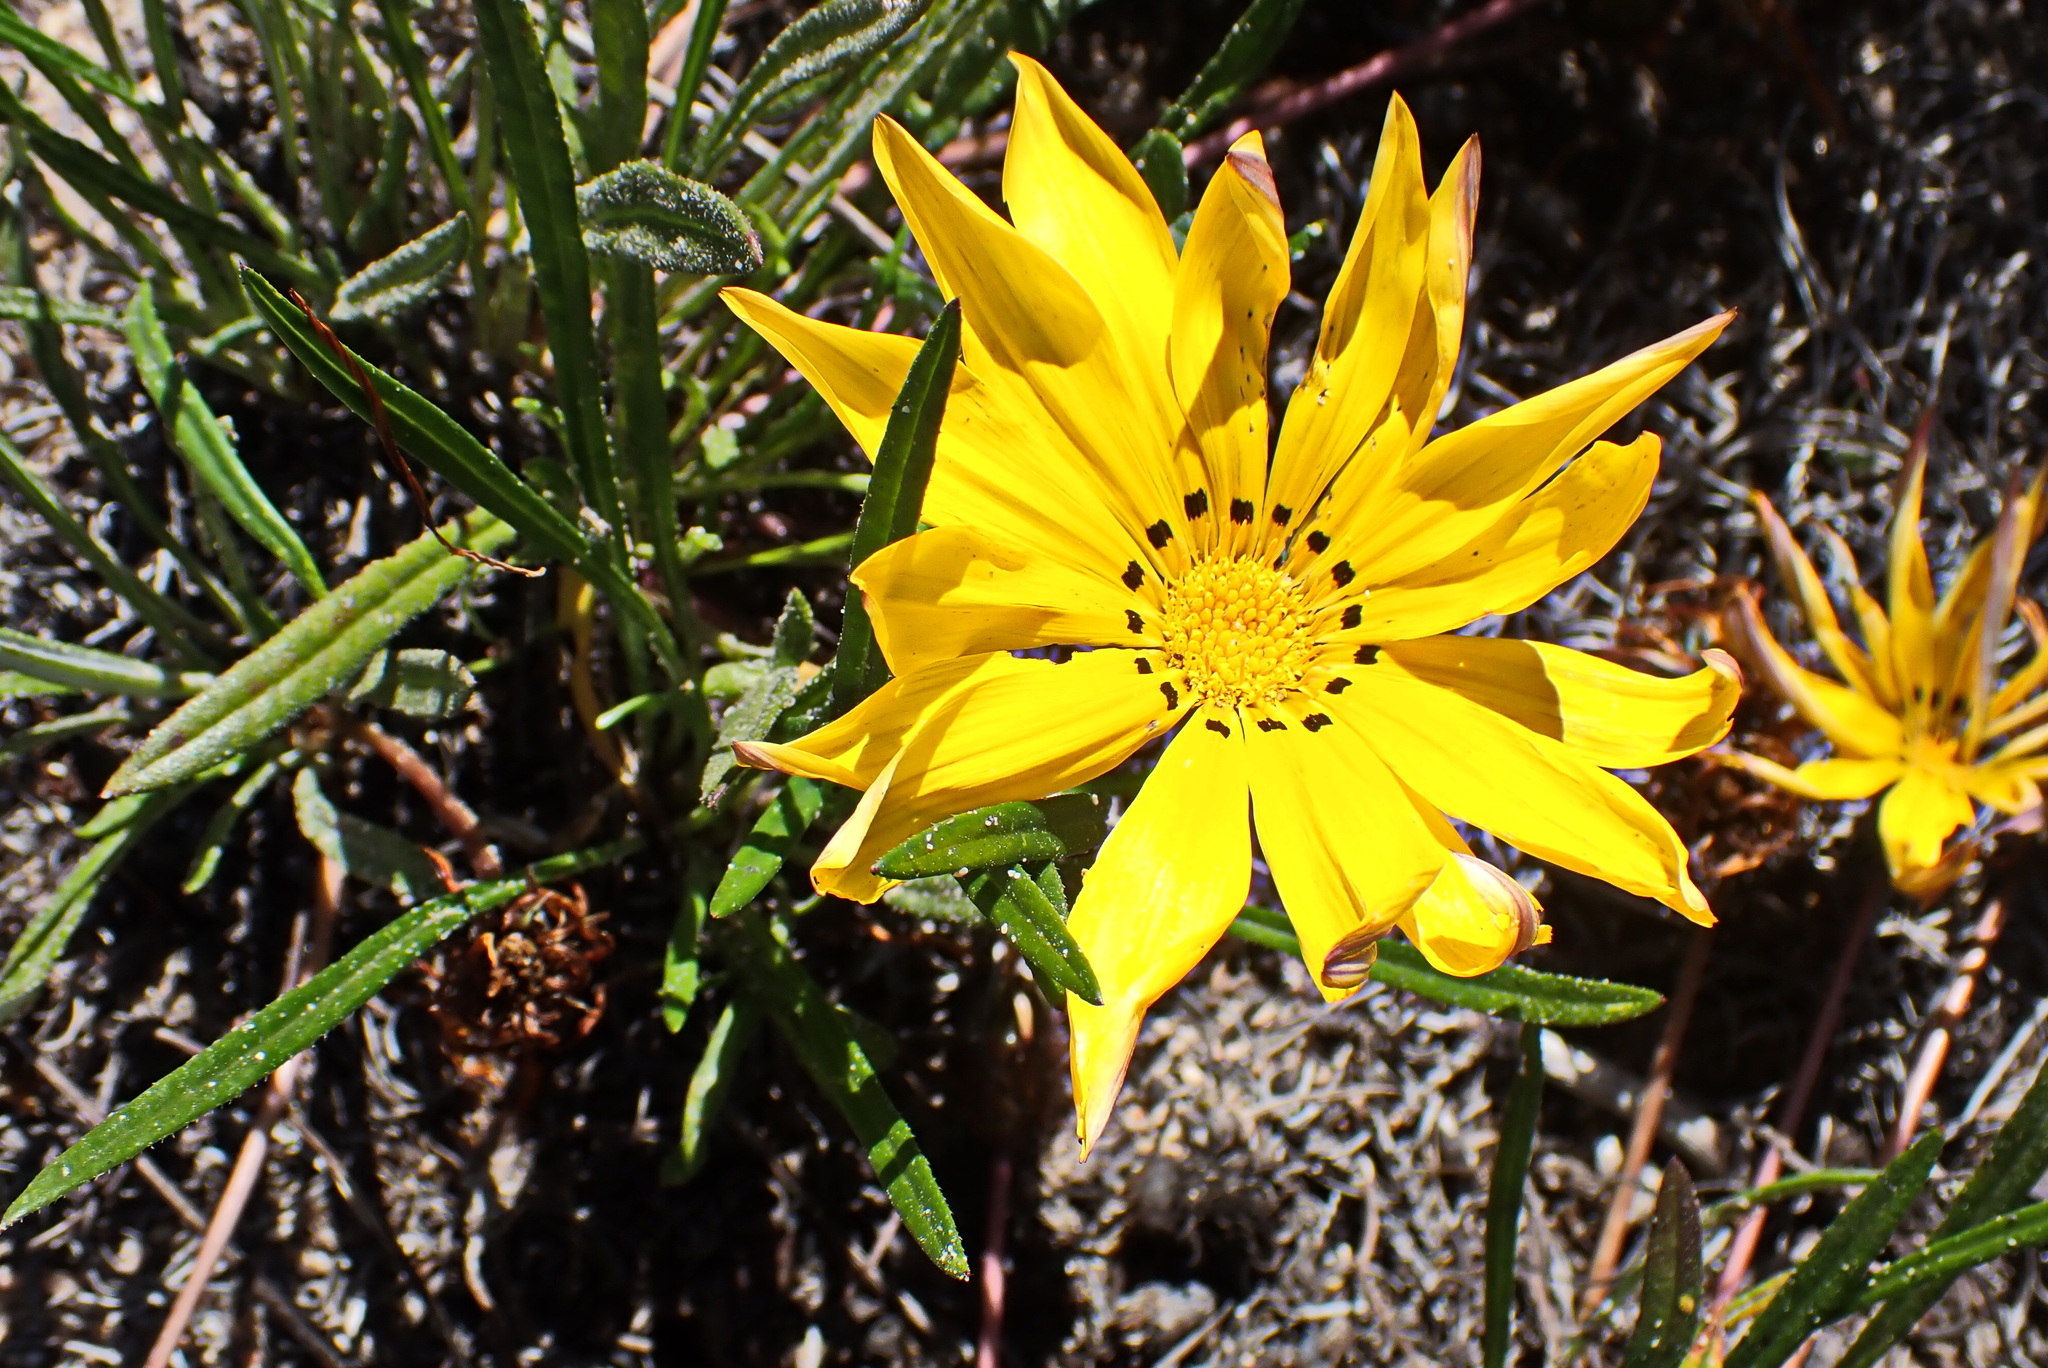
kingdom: Plantae
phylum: Tracheophyta
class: Magnoliopsida
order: Asterales
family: Asteraceae
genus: Gazania
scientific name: Gazania krebsiana
